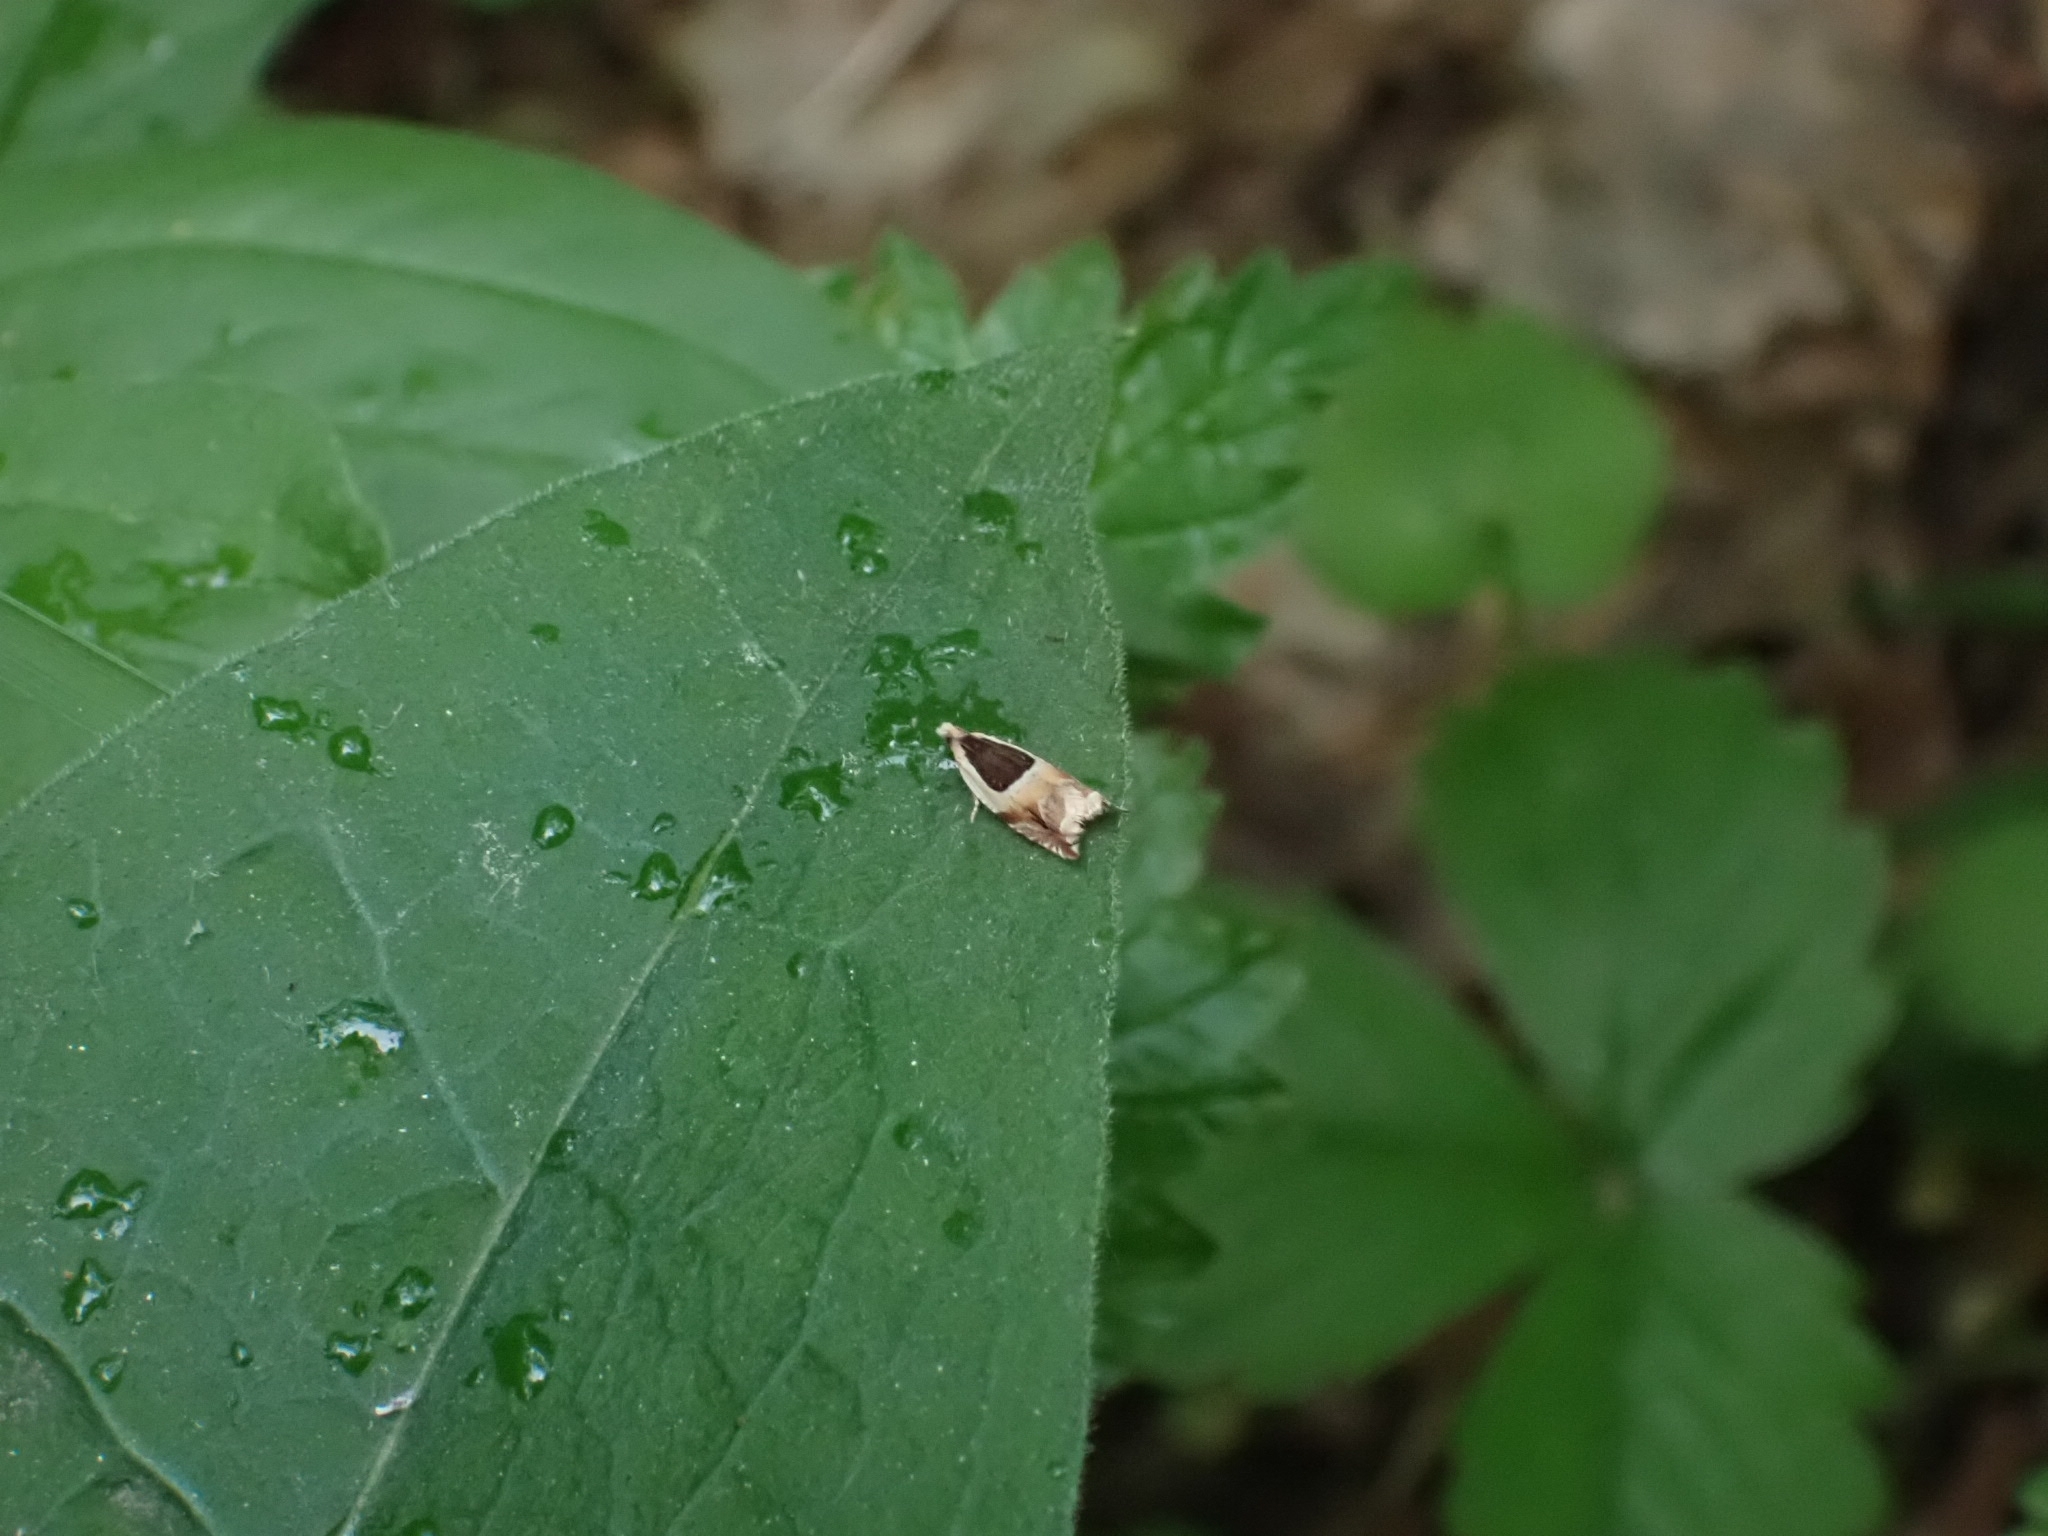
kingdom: Animalia
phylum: Arthropoda
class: Insecta
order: Lepidoptera
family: Tortricidae
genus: Ancylis
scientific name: Ancylis badiana
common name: Common roller
